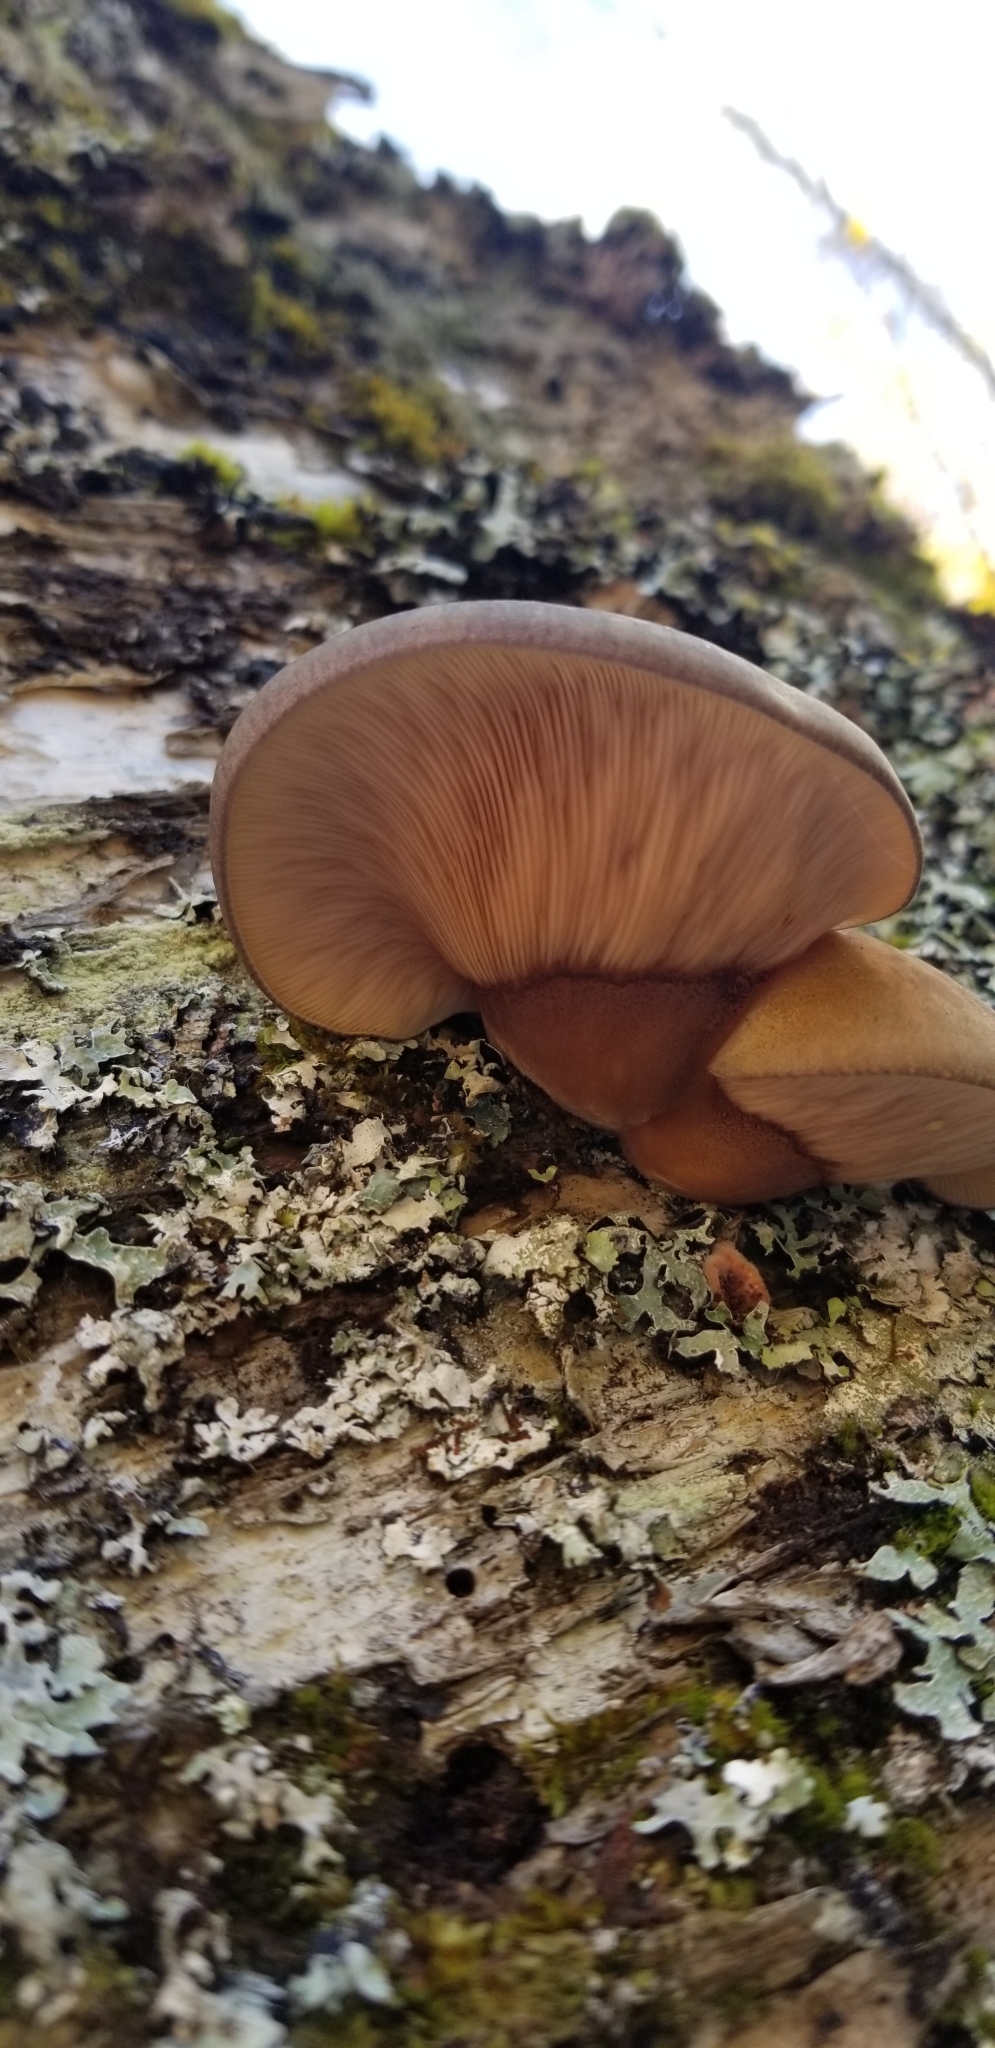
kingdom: Fungi
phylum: Basidiomycota
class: Agaricomycetes
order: Agaricales
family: Sarcomyxaceae
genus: Sarcomyxa
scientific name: Sarcomyxa serotina
